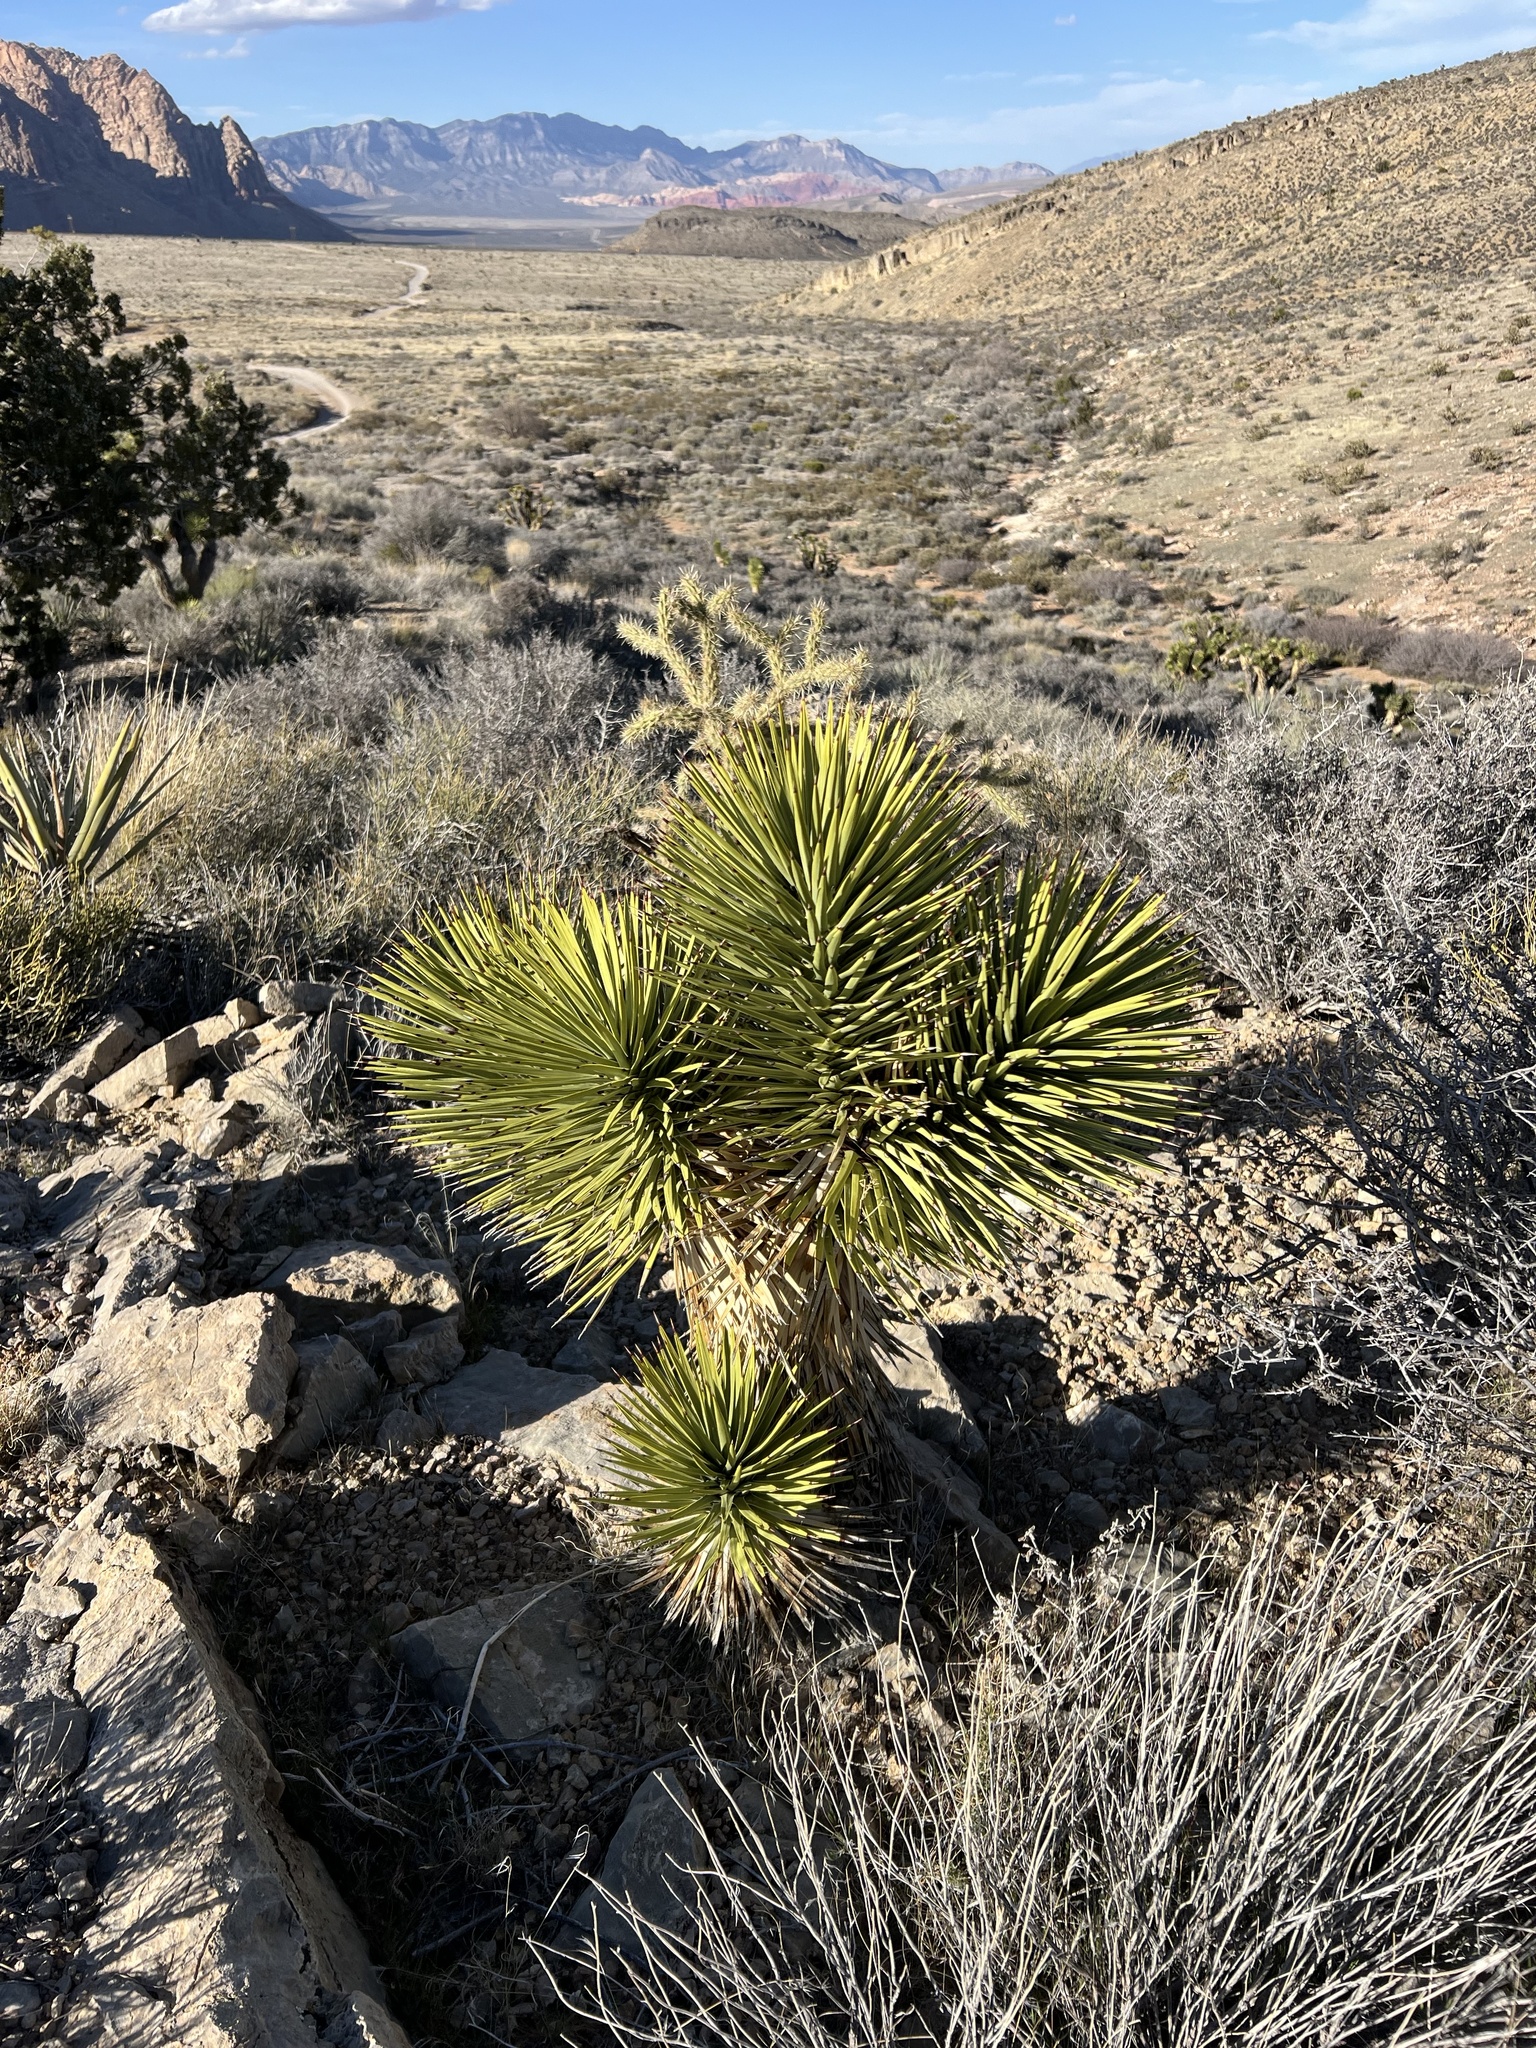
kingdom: Plantae
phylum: Tracheophyta
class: Liliopsida
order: Asparagales
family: Asparagaceae
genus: Yucca
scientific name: Yucca brevifolia
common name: Joshua tree
